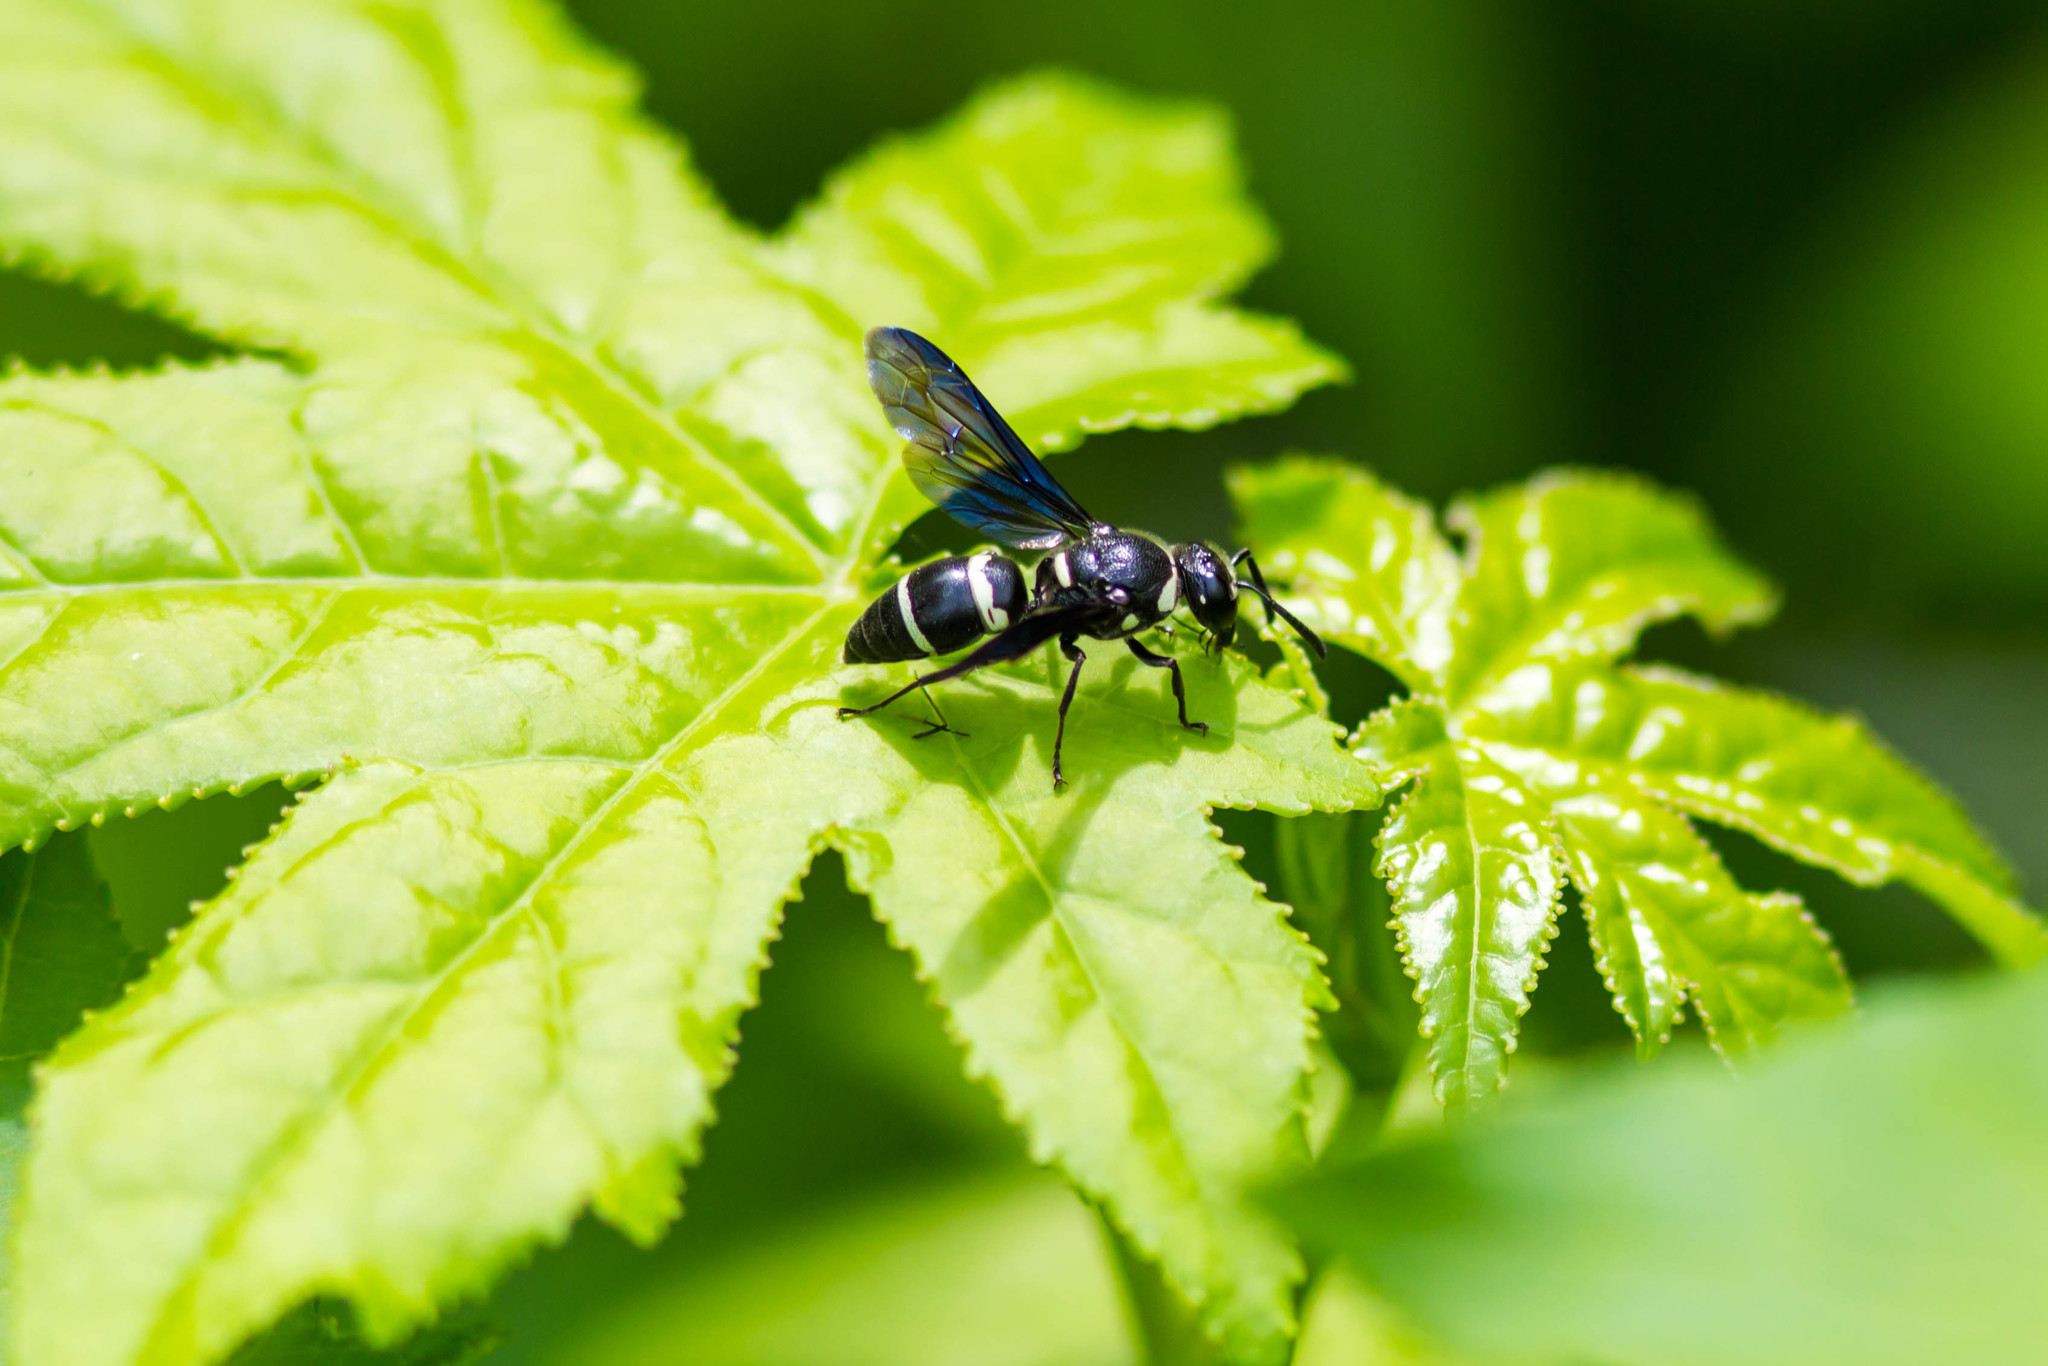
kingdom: Animalia
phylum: Arthropoda
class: Insecta
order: Hymenoptera
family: Eumenidae
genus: Euodynerus
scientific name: Euodynerus megaera
